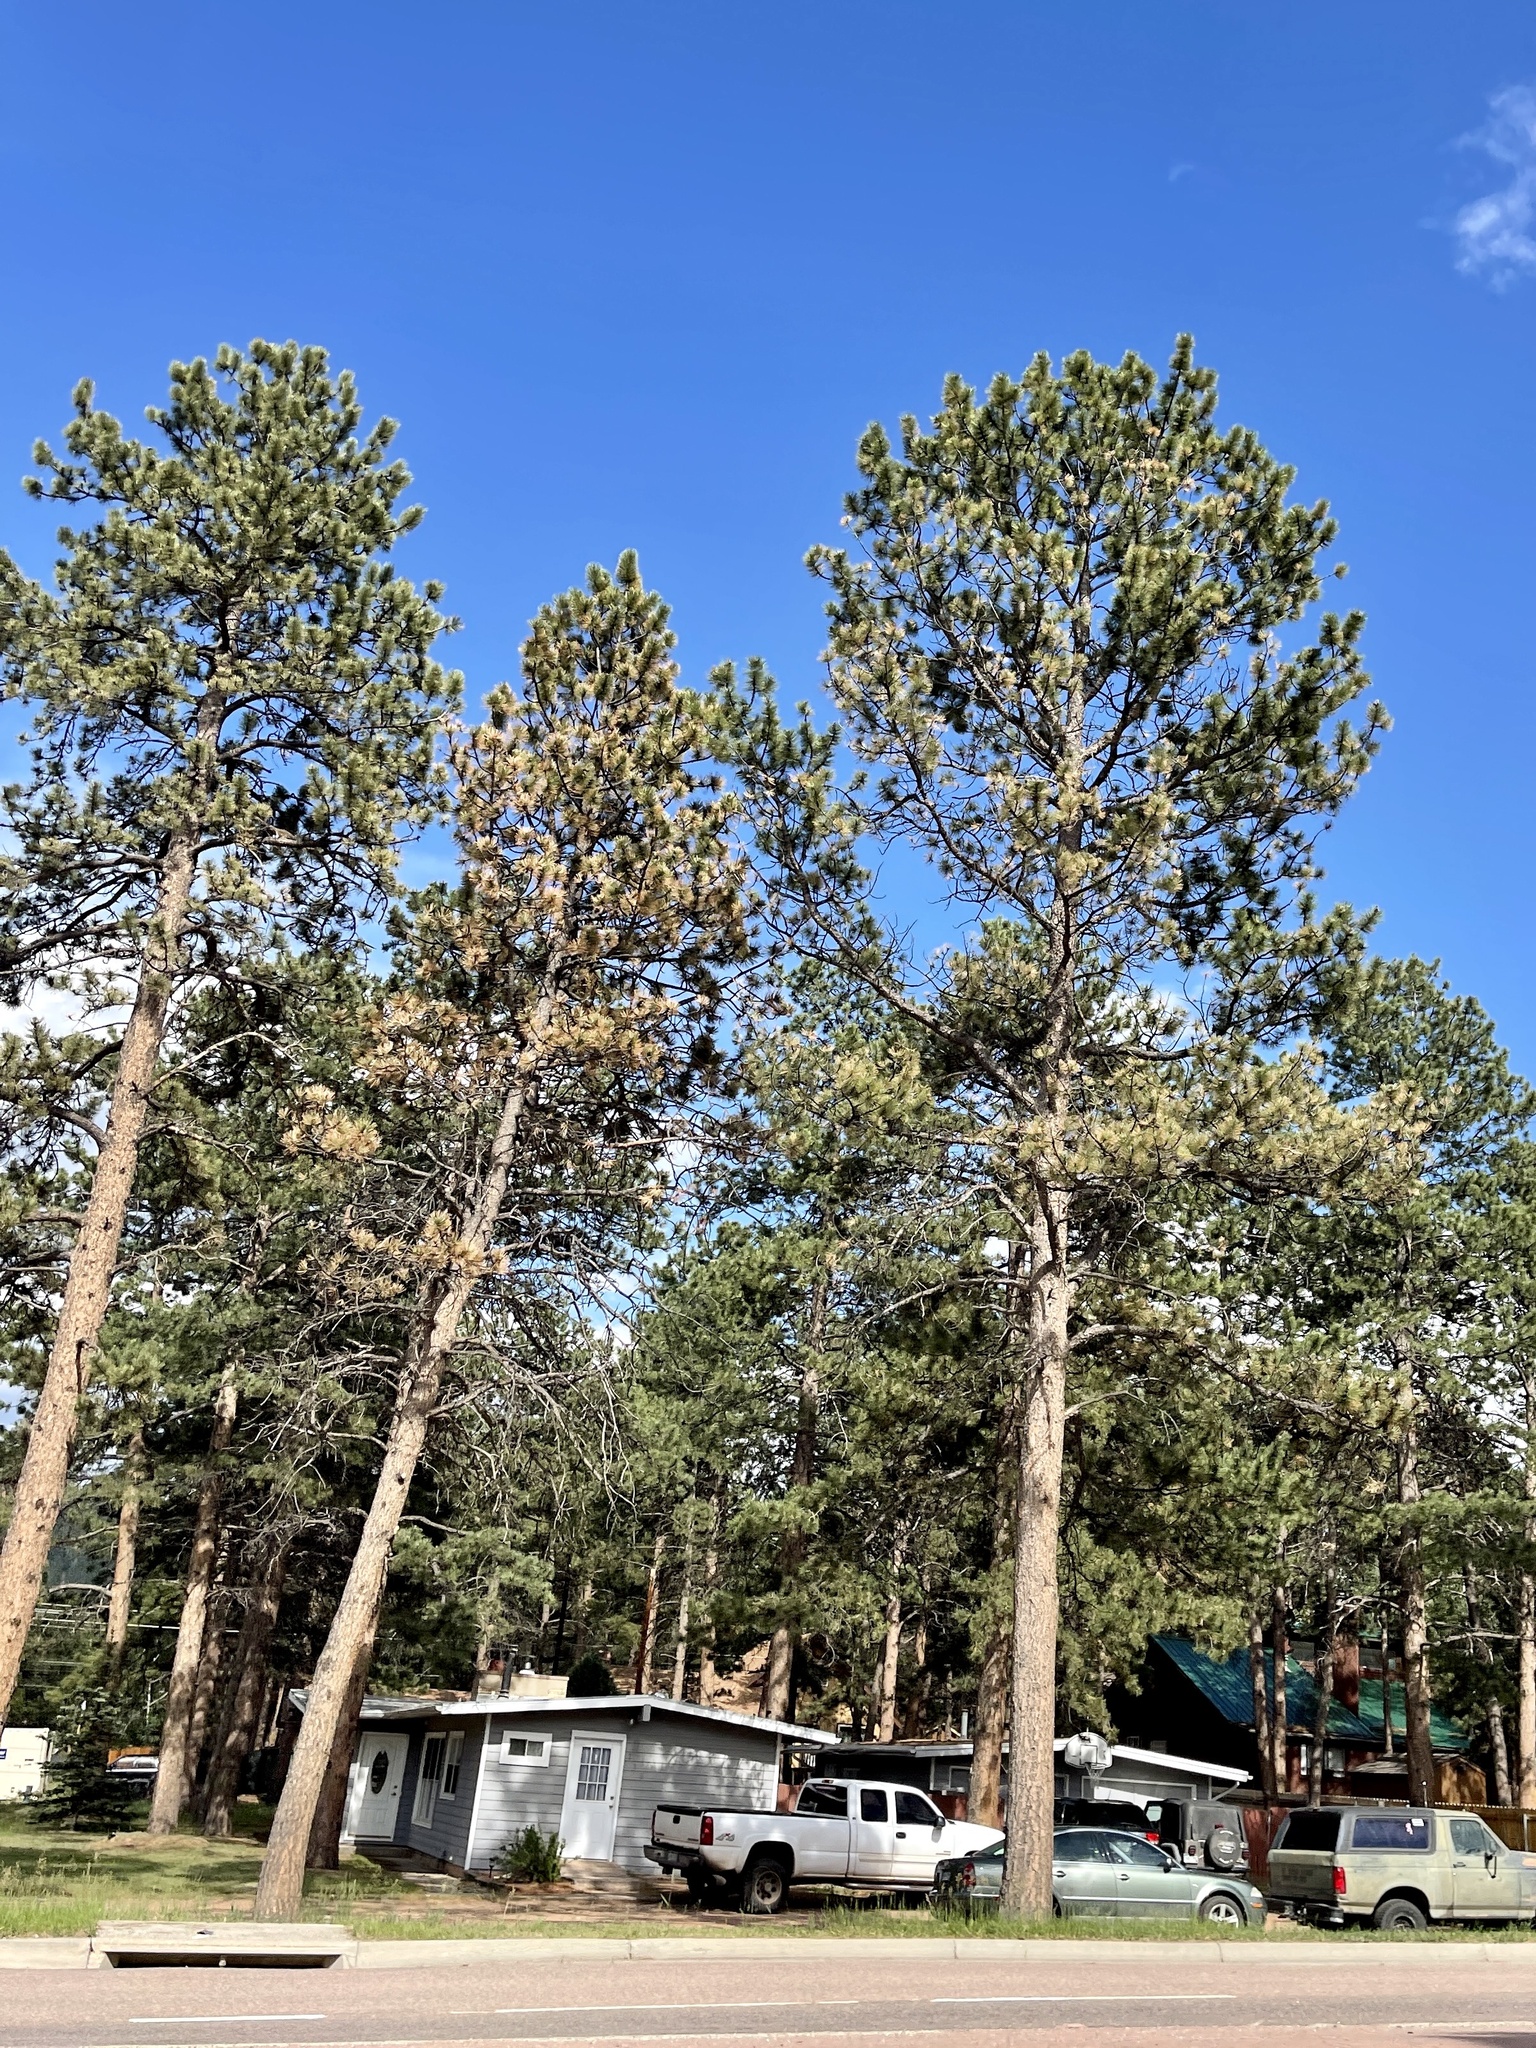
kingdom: Plantae
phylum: Tracheophyta
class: Pinopsida
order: Pinales
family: Pinaceae
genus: Pinus
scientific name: Pinus ponderosa
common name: Western yellow-pine
